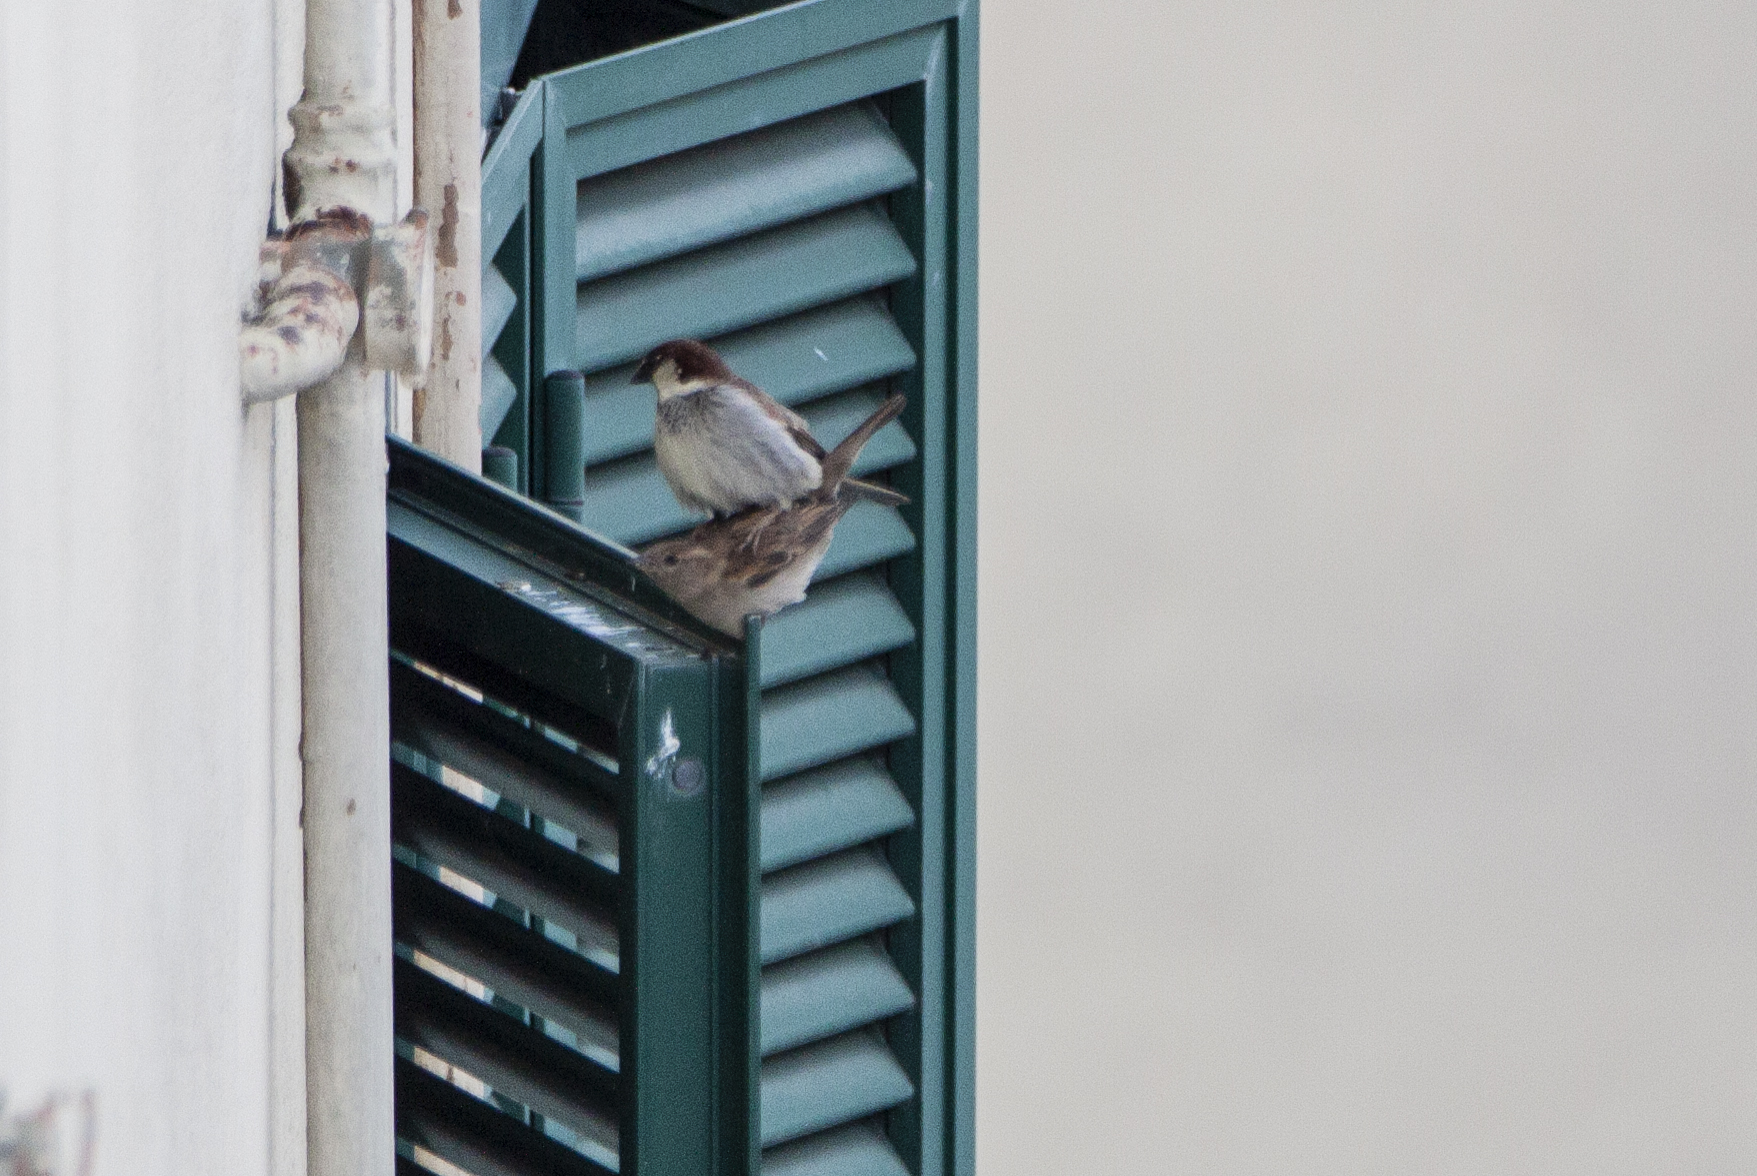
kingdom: Animalia
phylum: Chordata
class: Aves
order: Passeriformes
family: Passeridae
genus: Passer
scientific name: Passer italiae
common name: Italian sparrow
